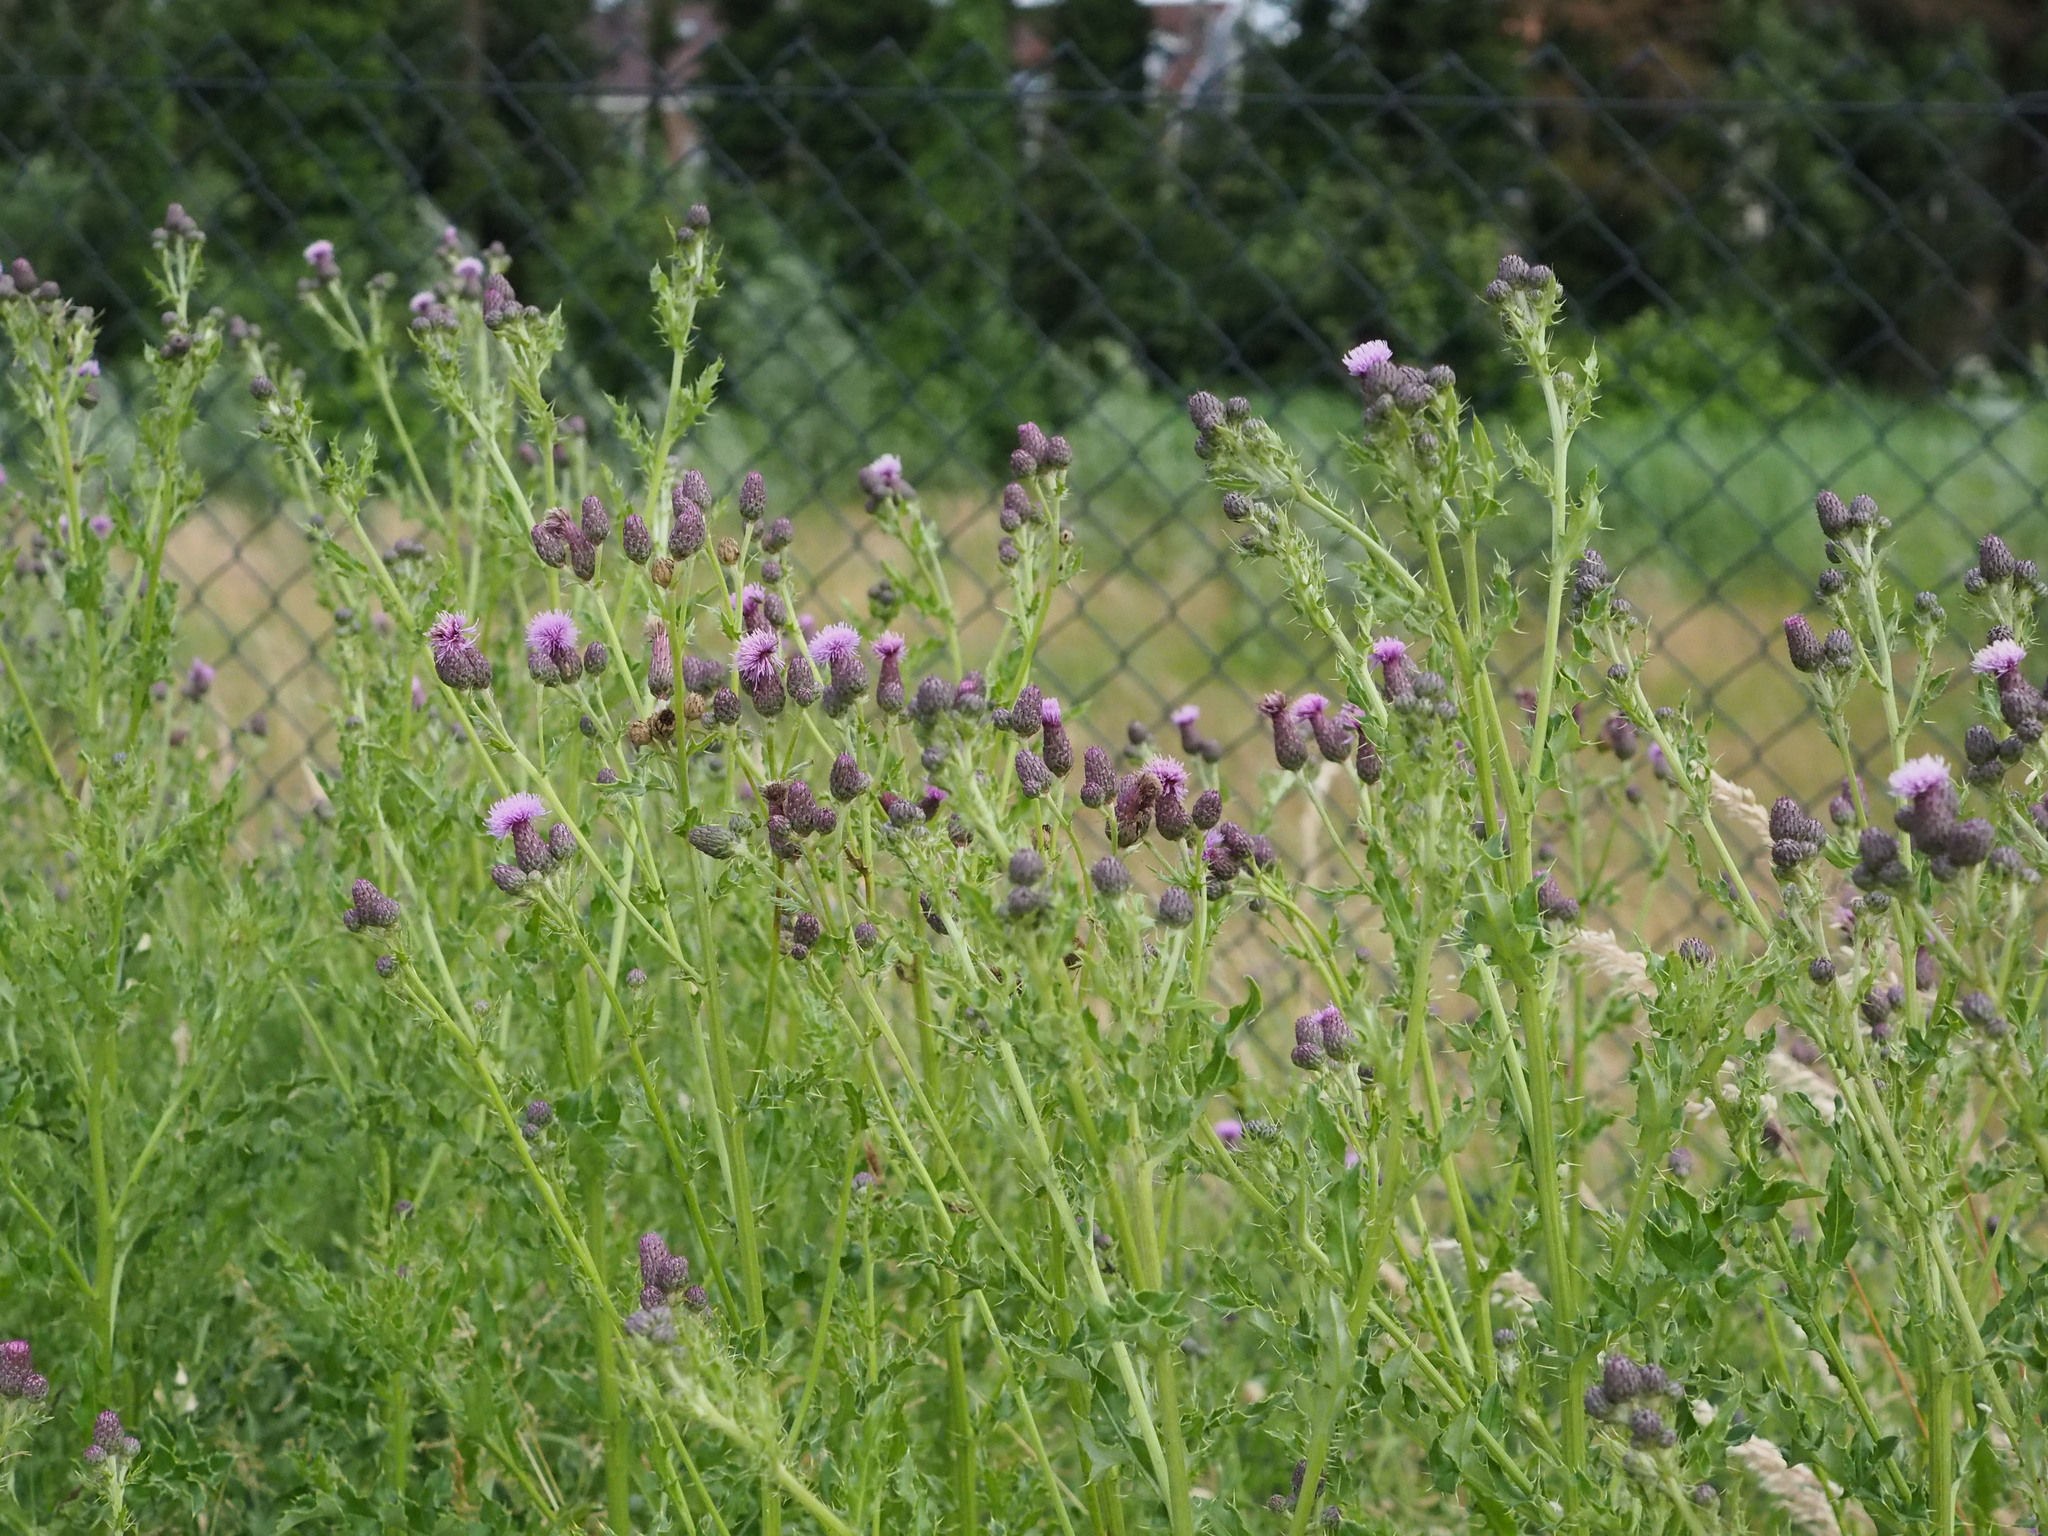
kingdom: Plantae
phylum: Tracheophyta
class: Magnoliopsida
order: Asterales
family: Asteraceae
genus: Cirsium
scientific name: Cirsium arvense
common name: Creeping thistle
